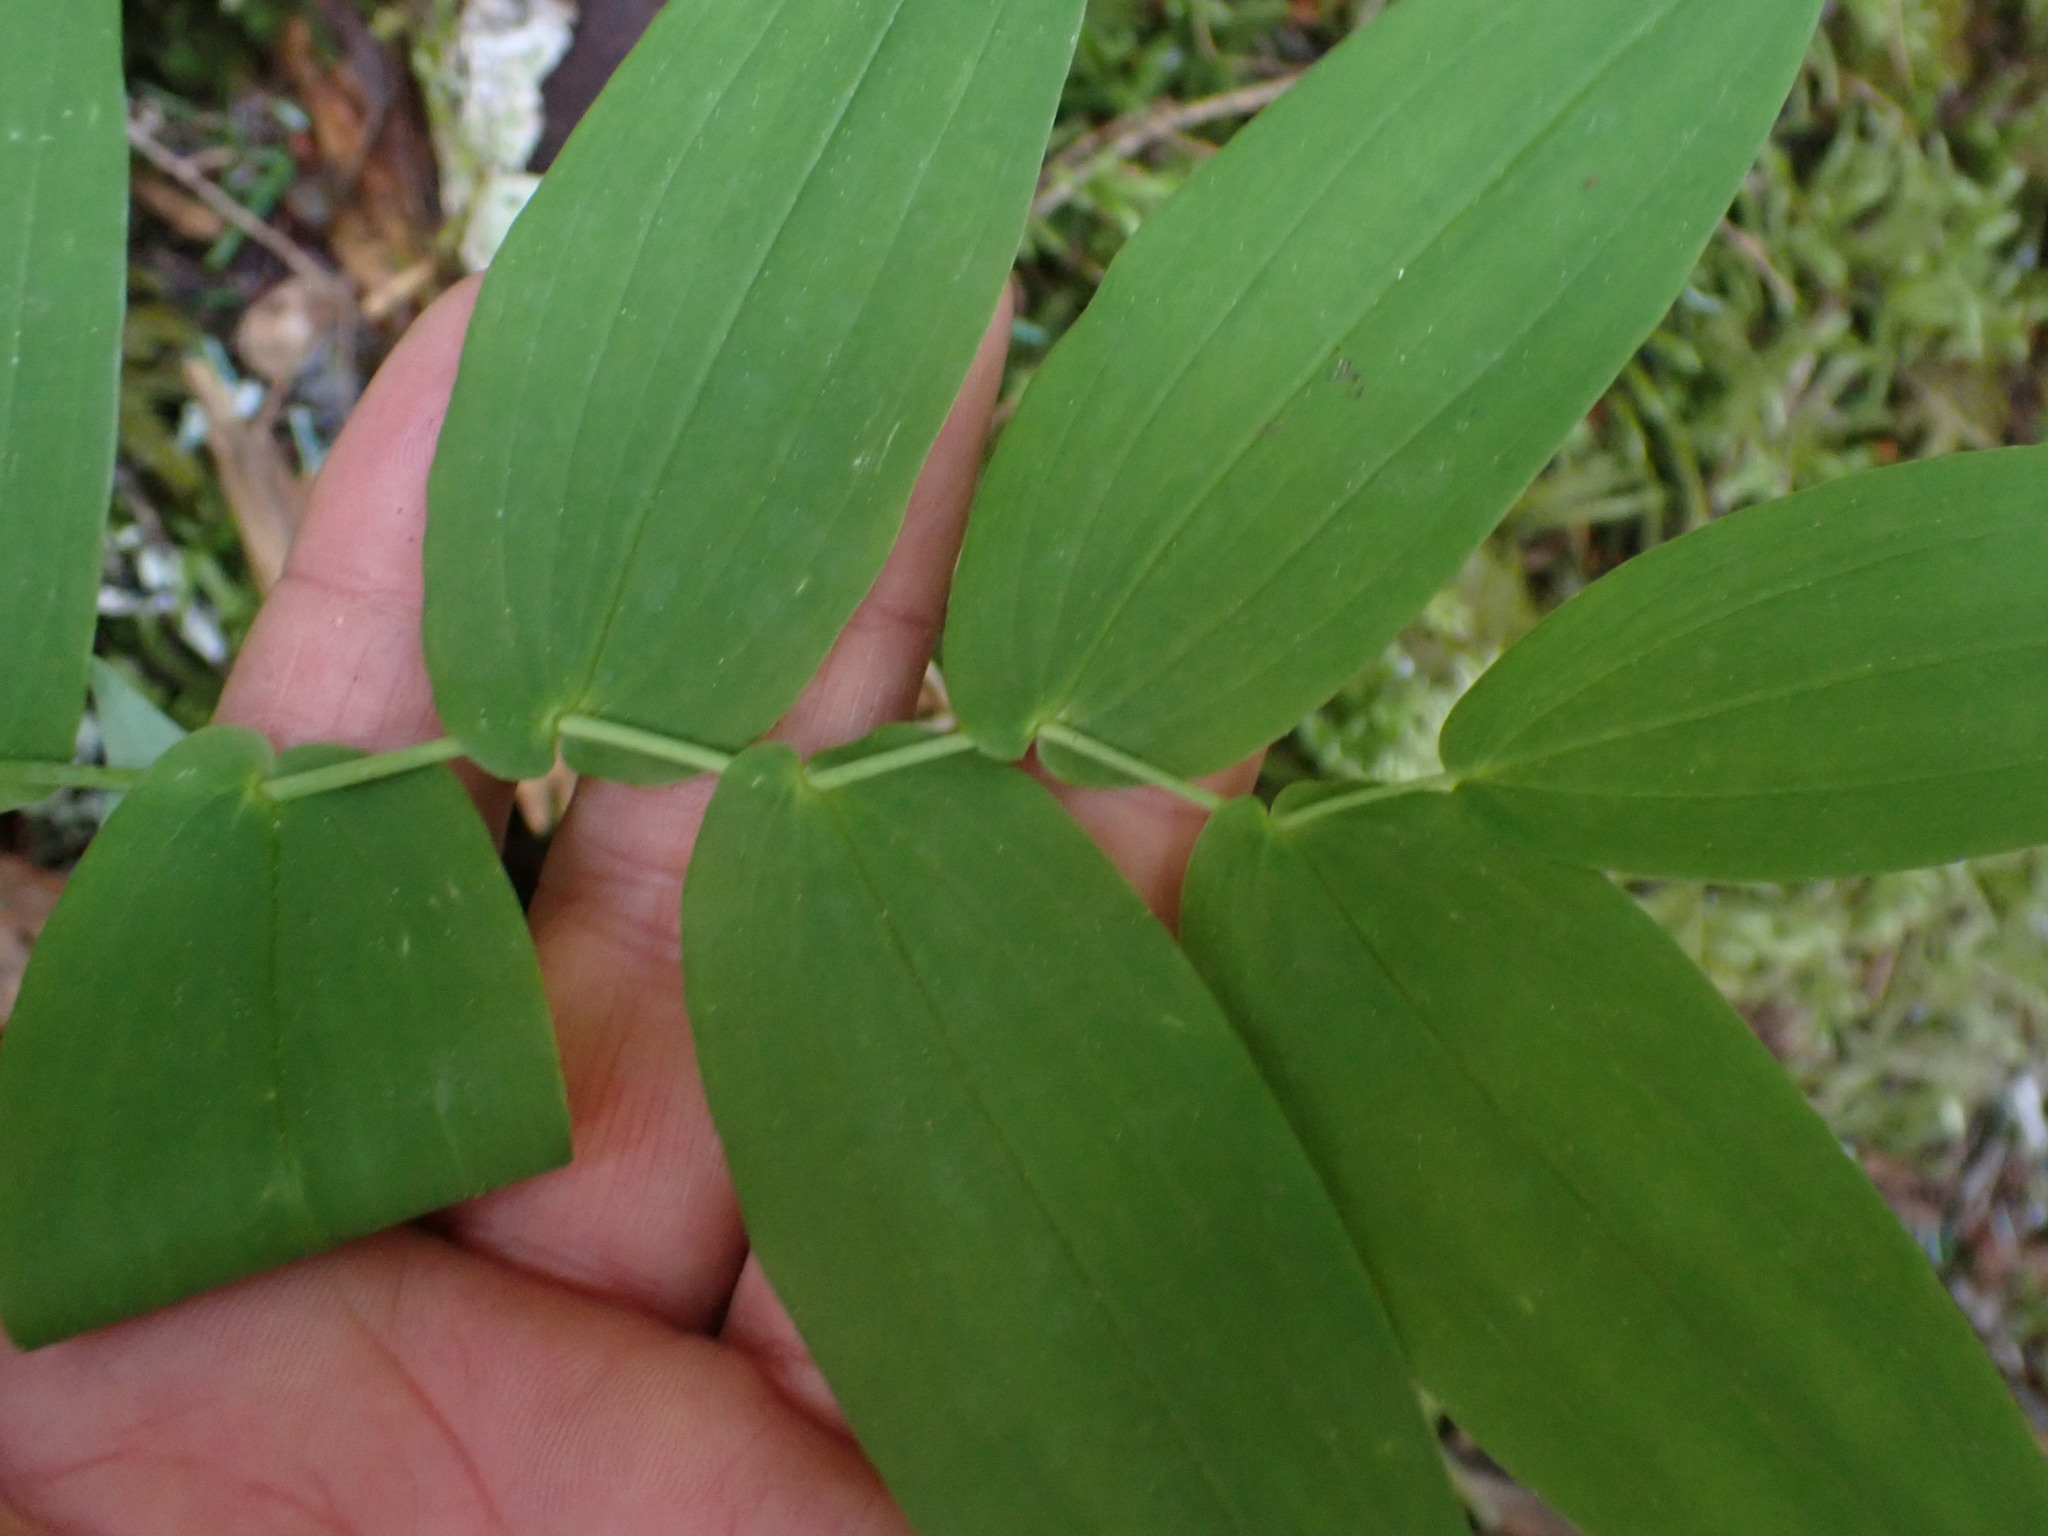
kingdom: Plantae
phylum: Tracheophyta
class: Liliopsida
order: Liliales
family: Liliaceae
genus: Streptopus
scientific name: Streptopus amplexifolius
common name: Clasp twisted stalk
